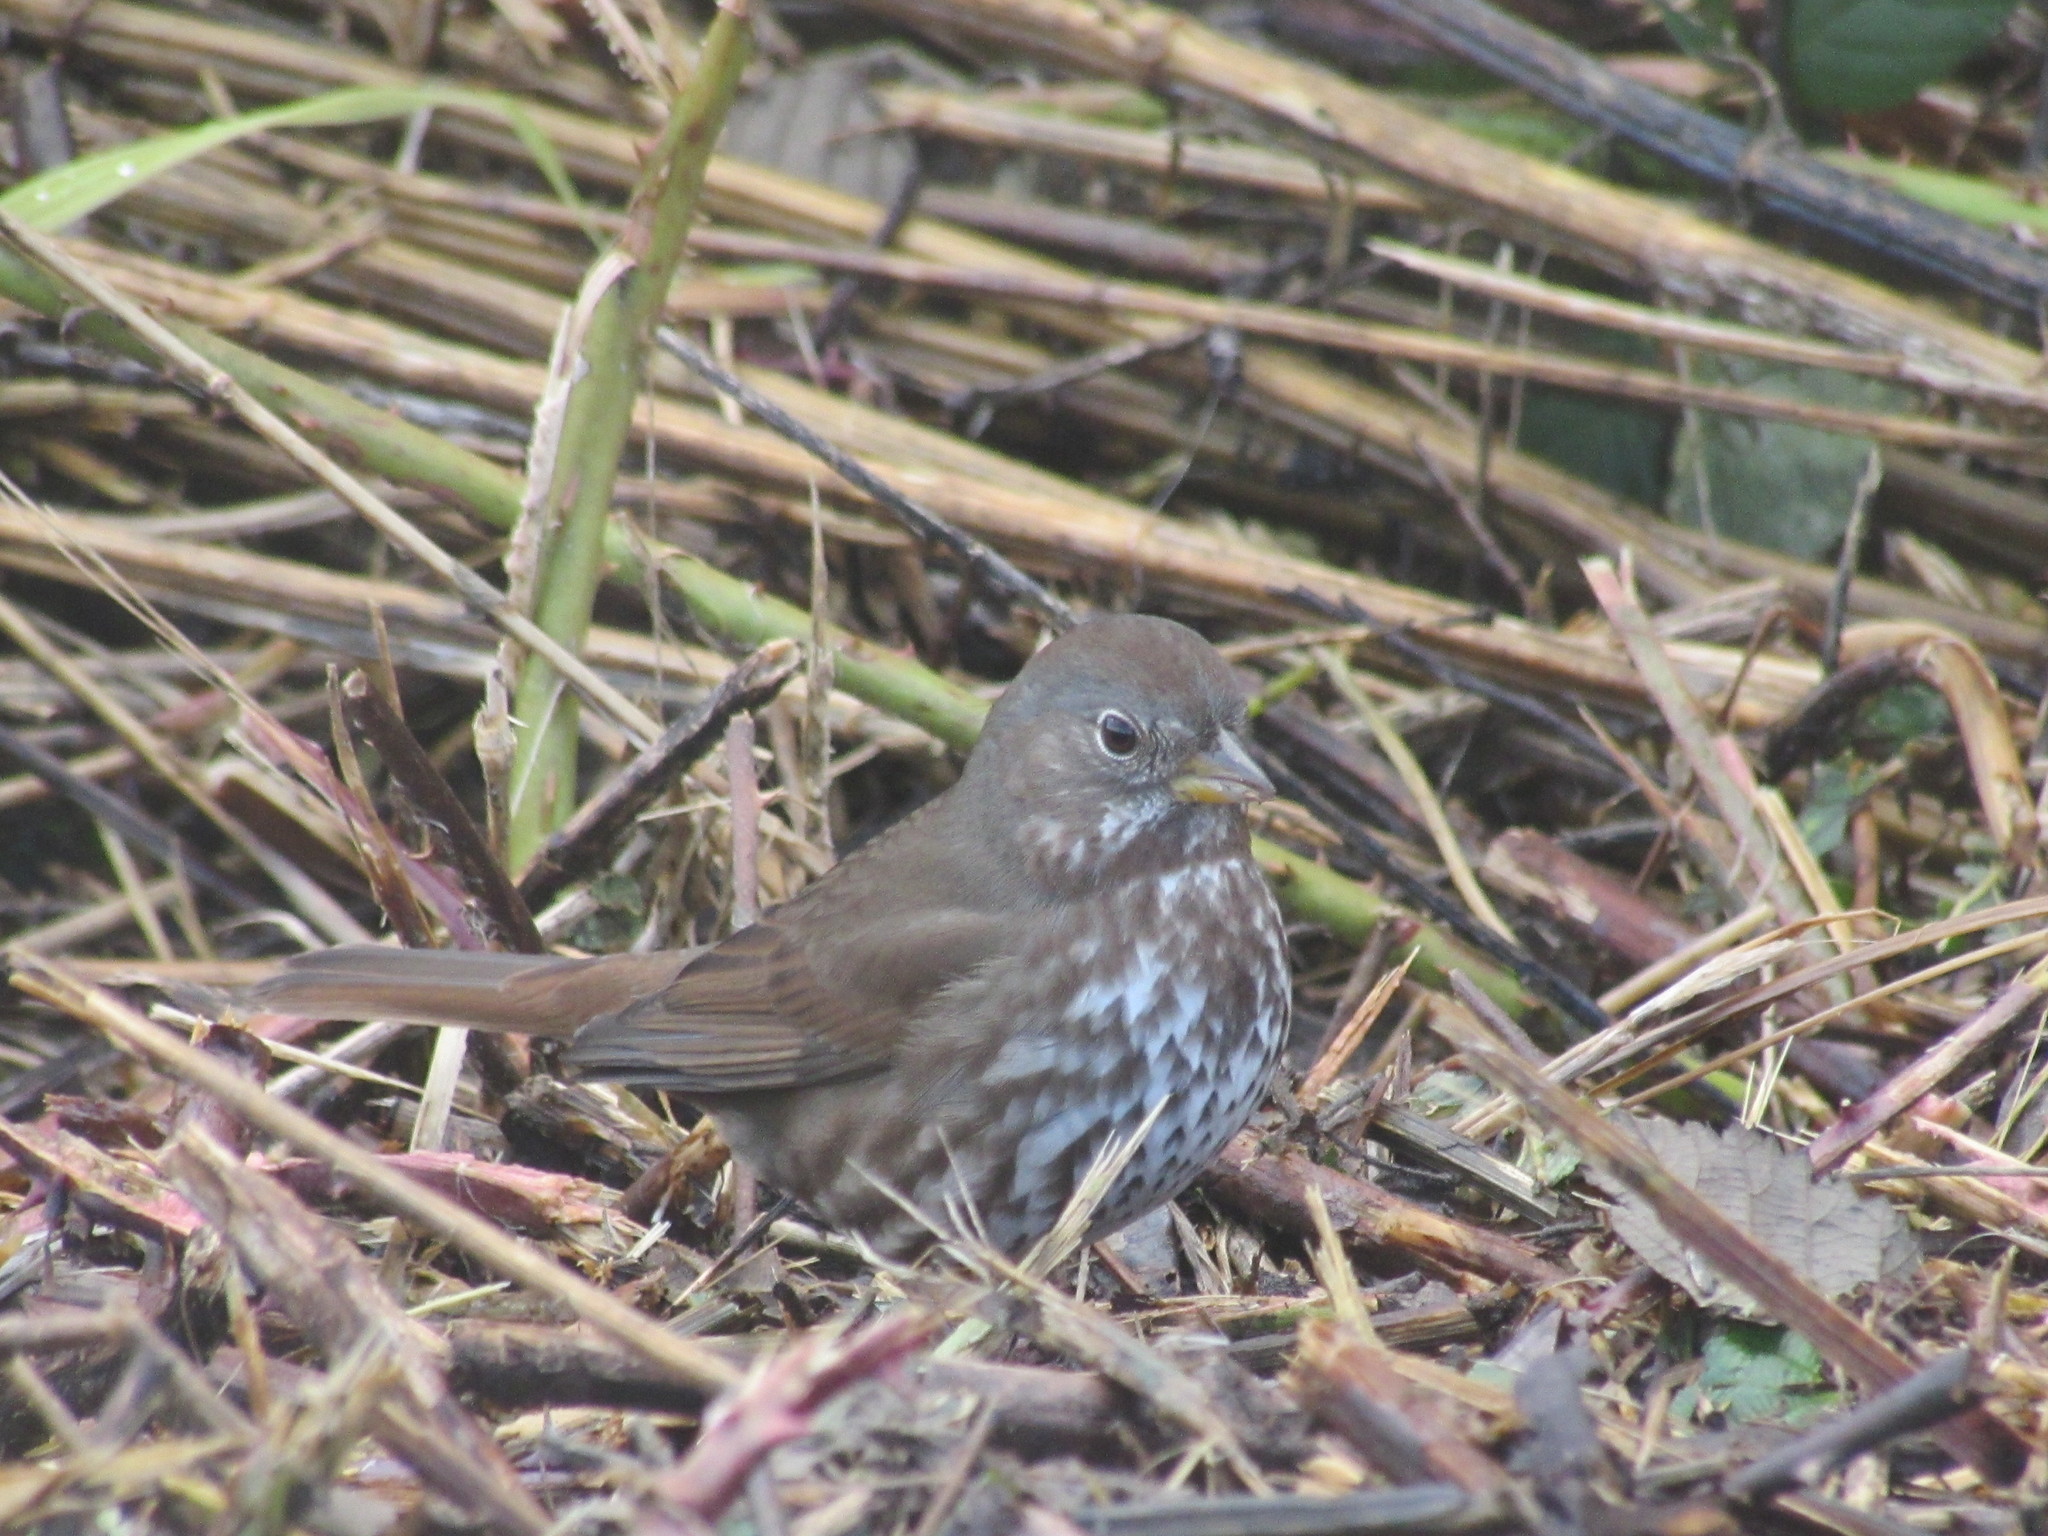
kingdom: Animalia
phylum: Chordata
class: Aves
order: Passeriformes
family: Passerellidae
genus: Passerella
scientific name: Passerella iliaca
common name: Fox sparrow
